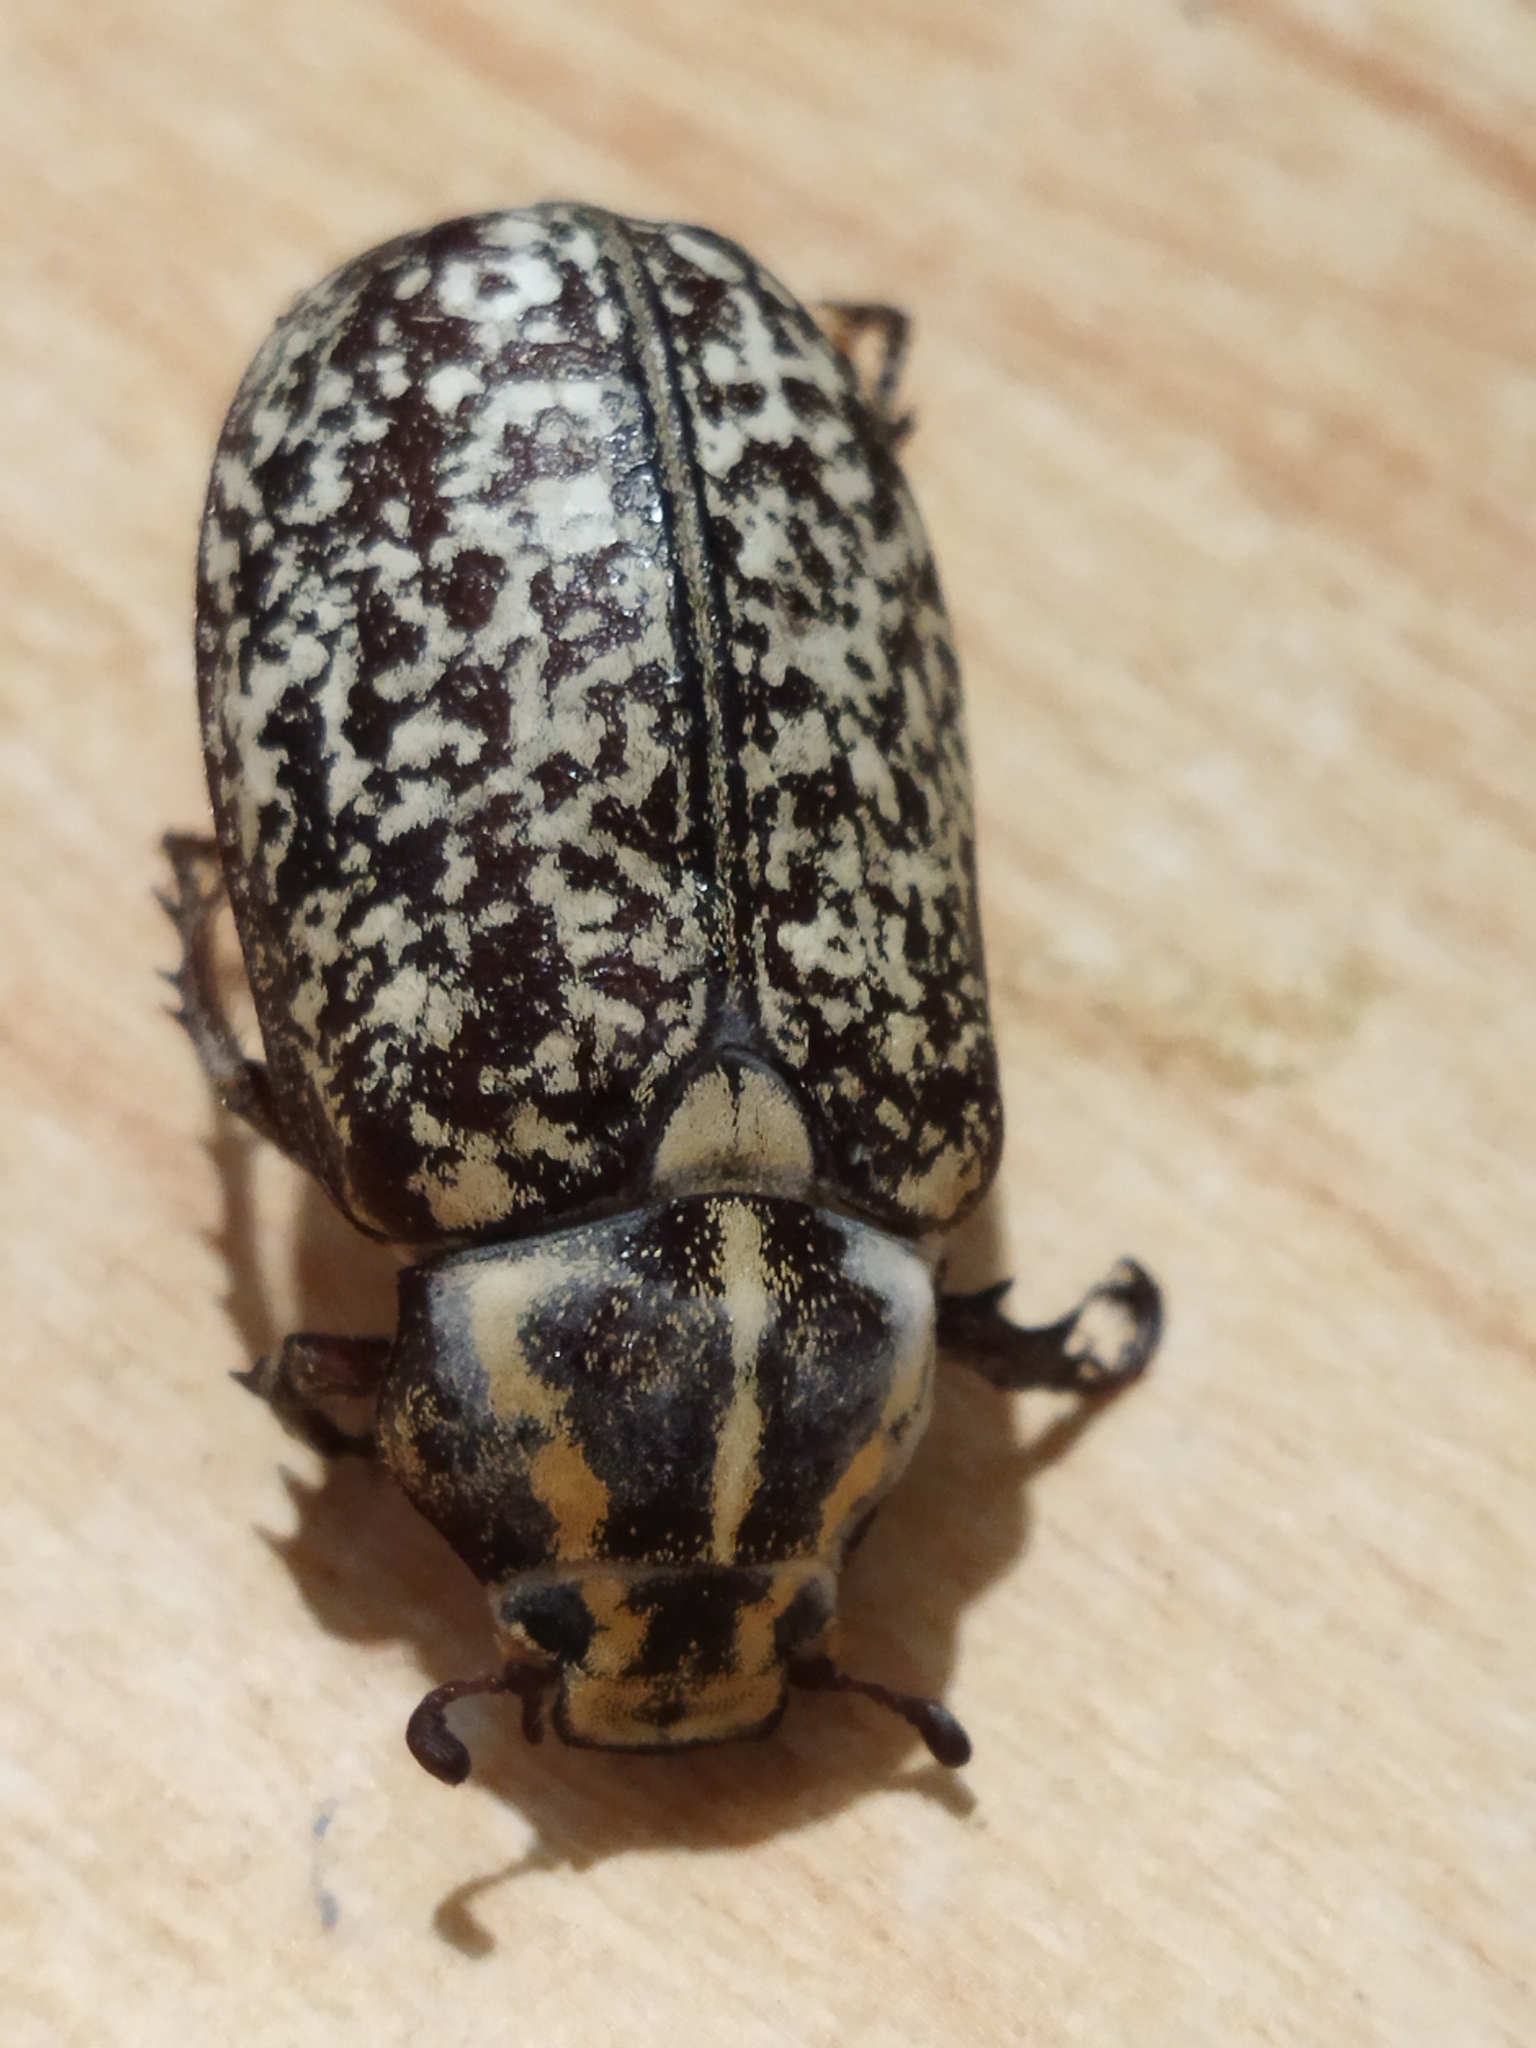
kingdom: Animalia
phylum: Arthropoda
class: Insecta
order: Coleoptera
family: Scarabaeidae
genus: Polyphylla
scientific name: Polyphylla fullo
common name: Pine chafer
